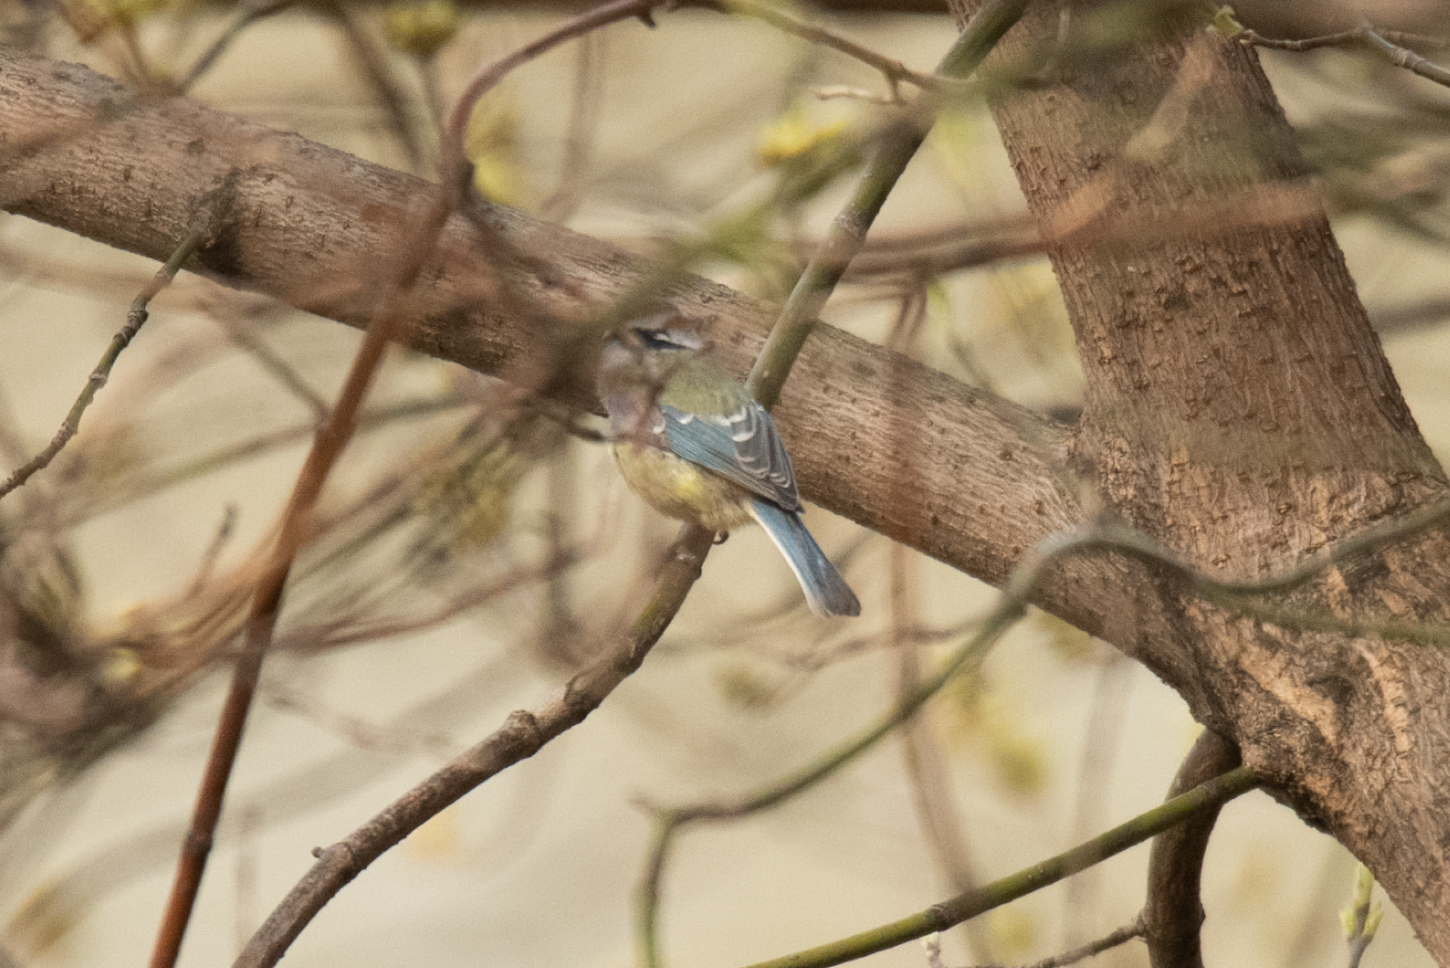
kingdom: Animalia
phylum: Chordata
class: Aves
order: Passeriformes
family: Paridae
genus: Cyanistes
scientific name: Cyanistes caeruleus
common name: Eurasian blue tit
